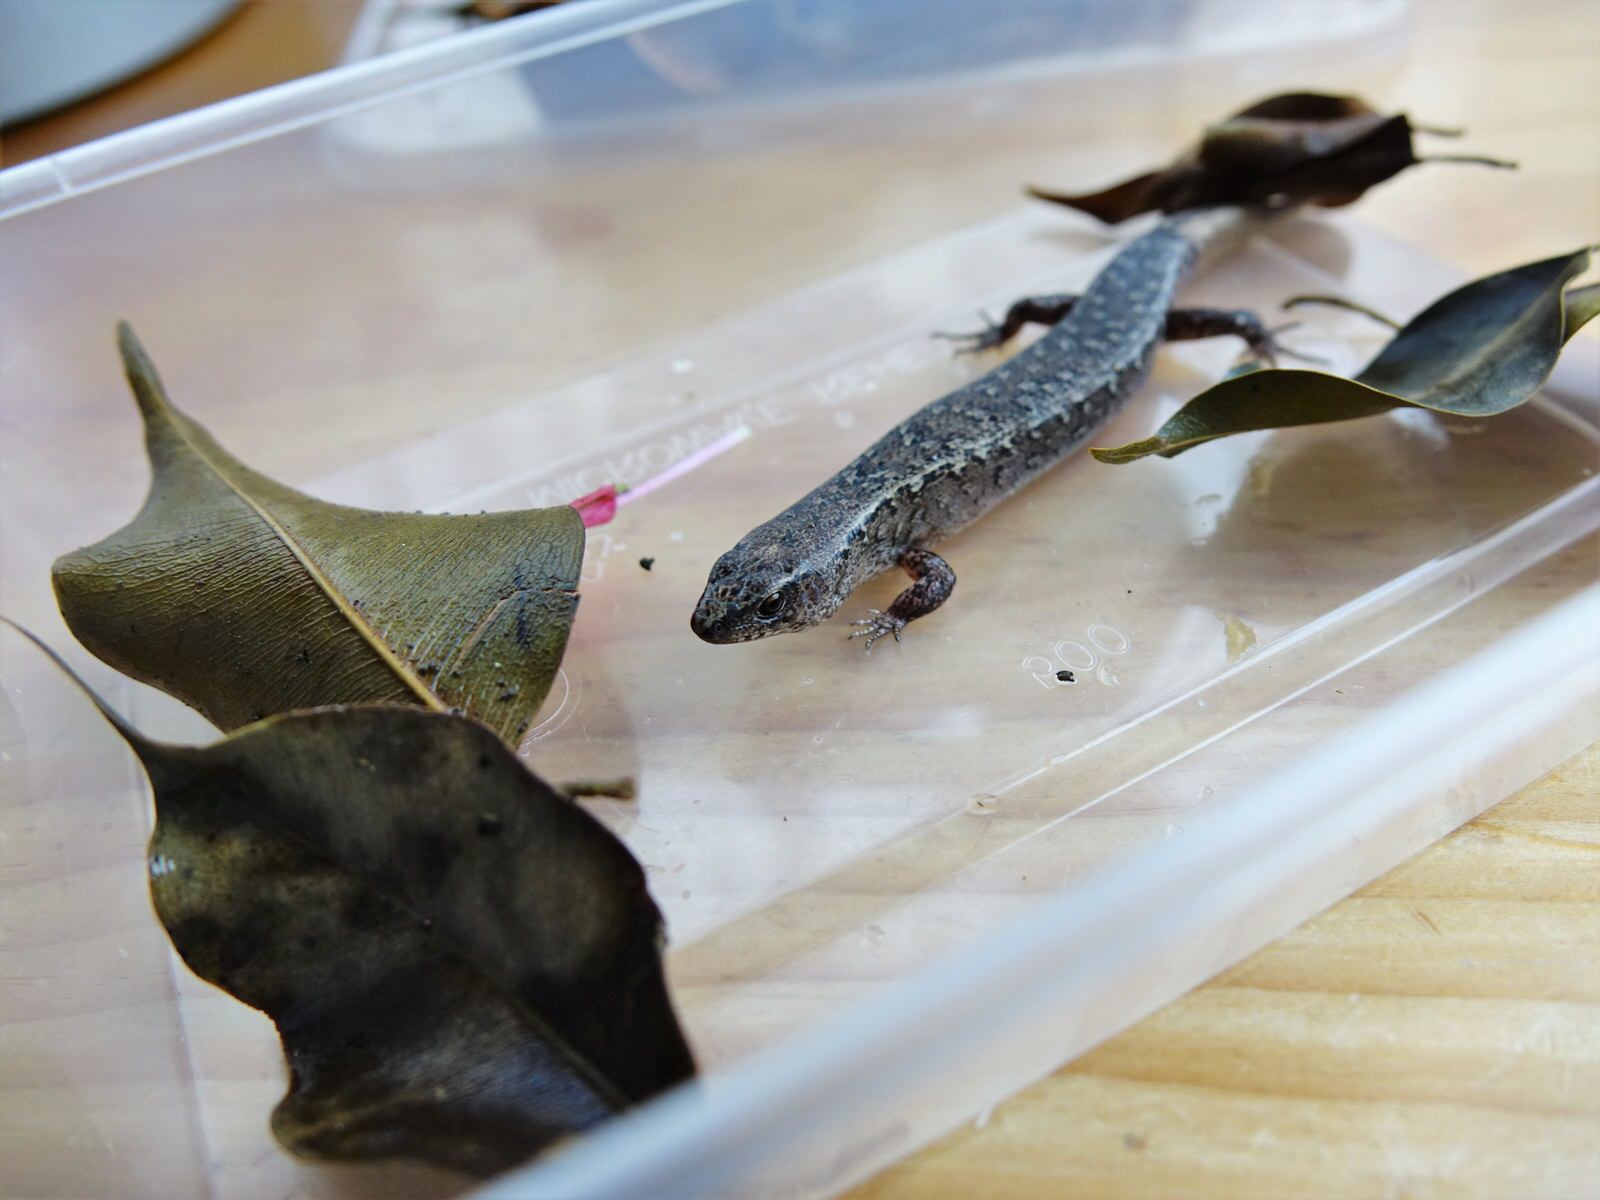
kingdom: Animalia
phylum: Chordata
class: Squamata
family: Scincidae
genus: Oligosoma
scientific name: Oligosoma ornatum
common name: Gray's ornate skink
